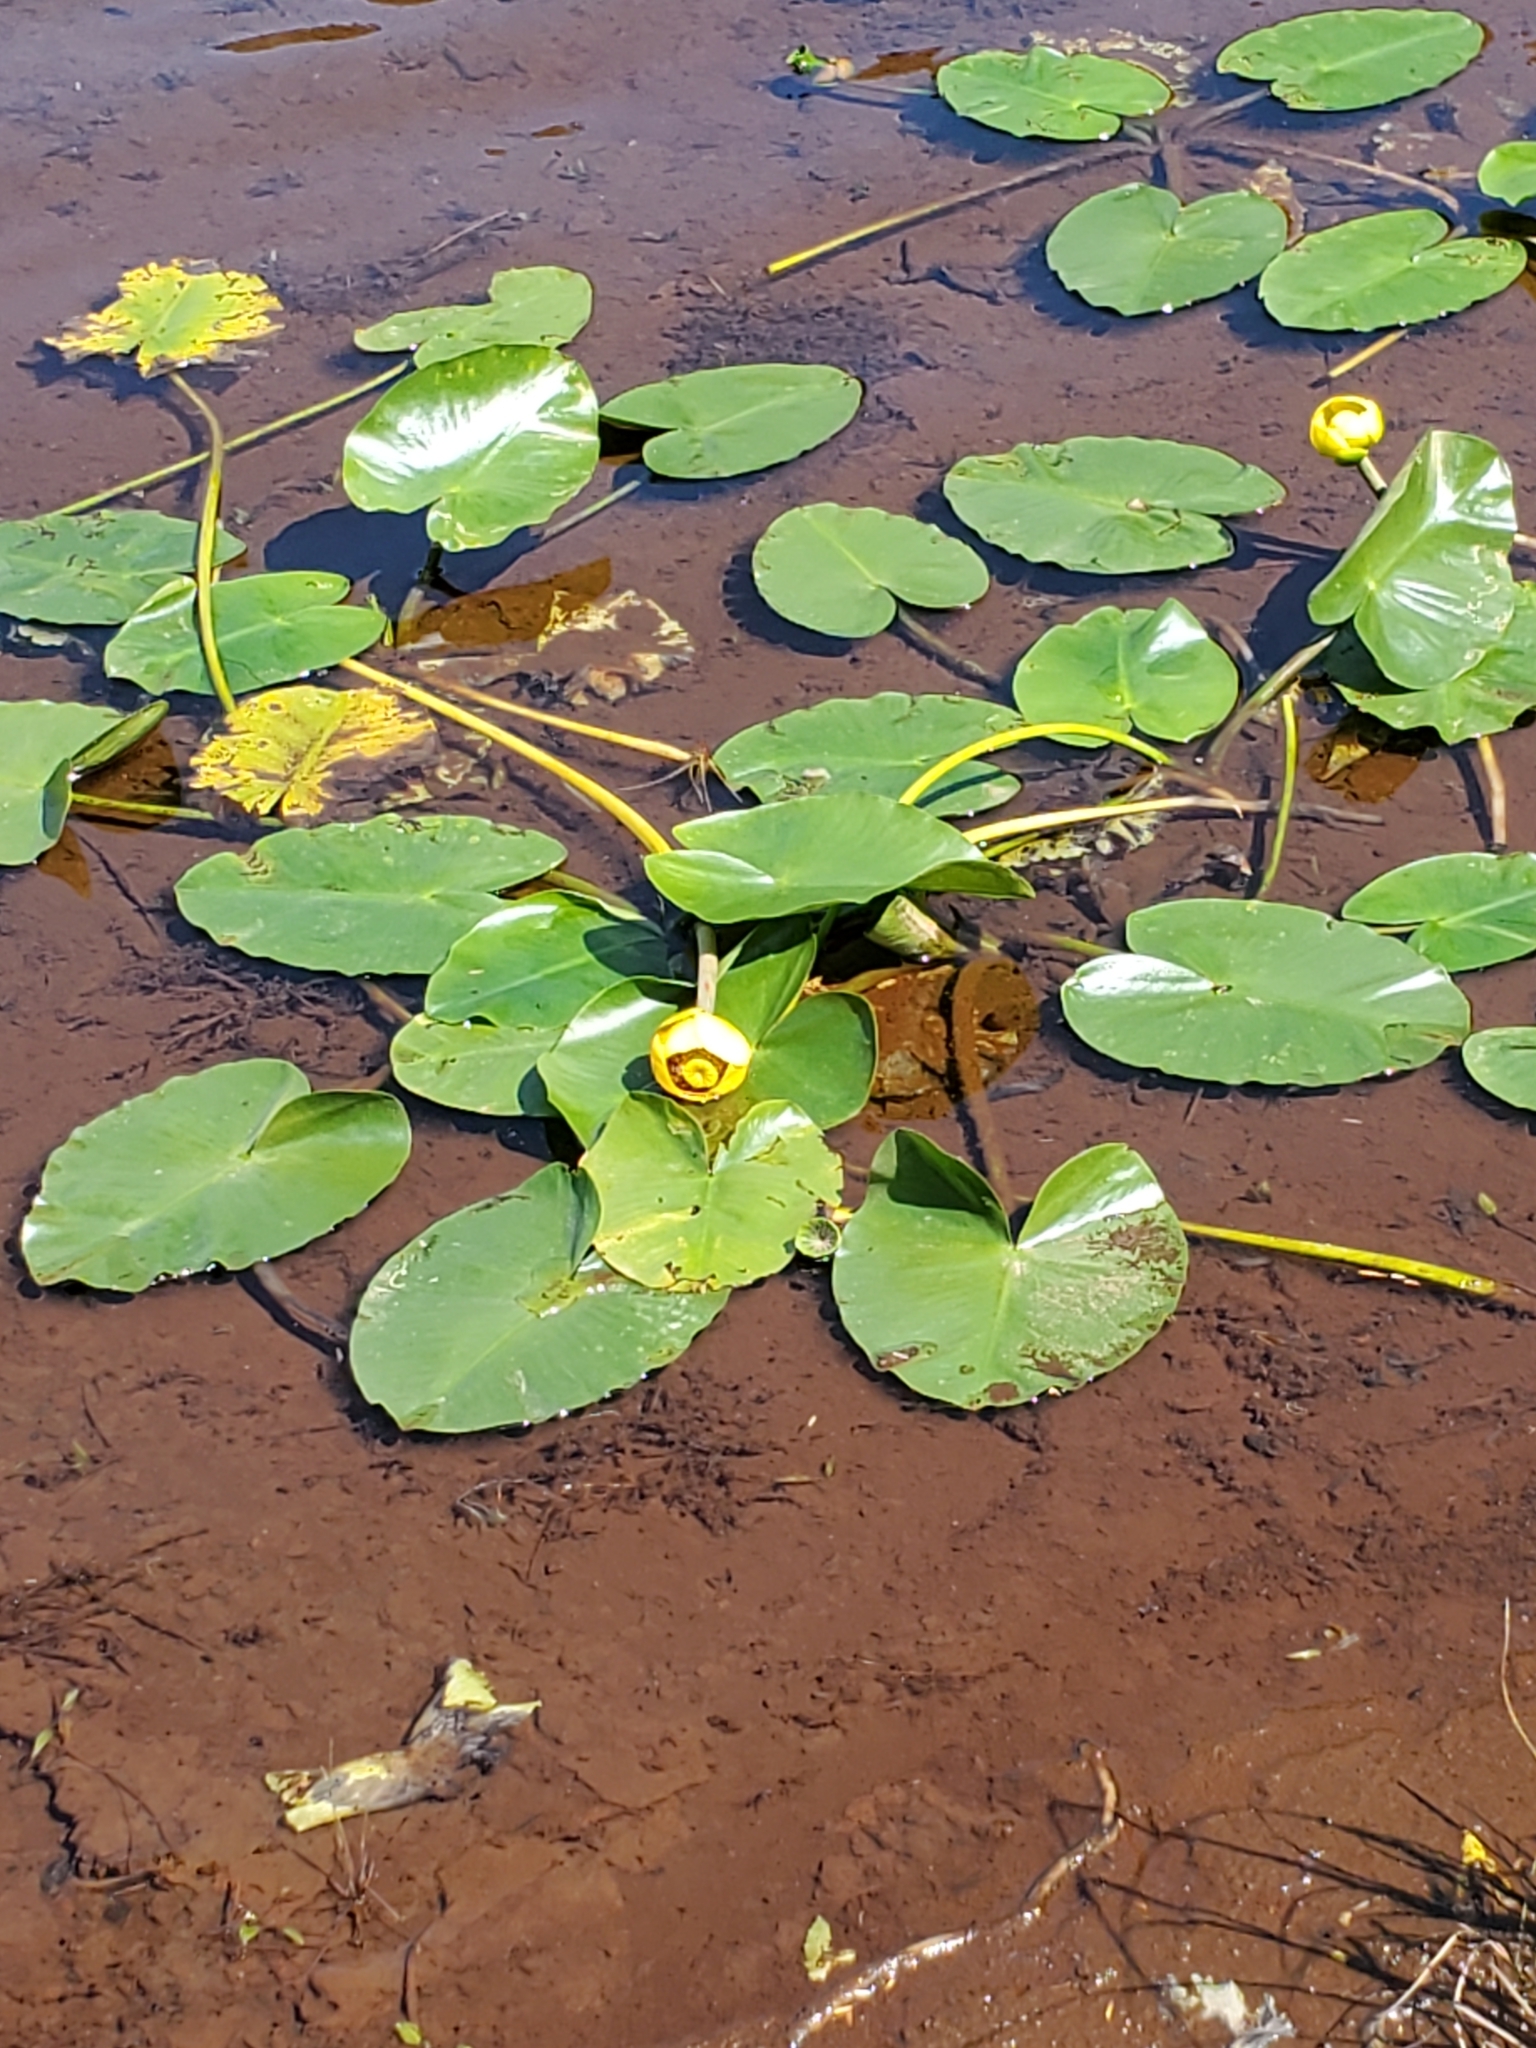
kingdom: Plantae
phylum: Tracheophyta
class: Magnoliopsida
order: Nymphaeales
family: Nymphaeaceae
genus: Nuphar
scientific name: Nuphar polysepala
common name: Rocky mountain cow-lily
